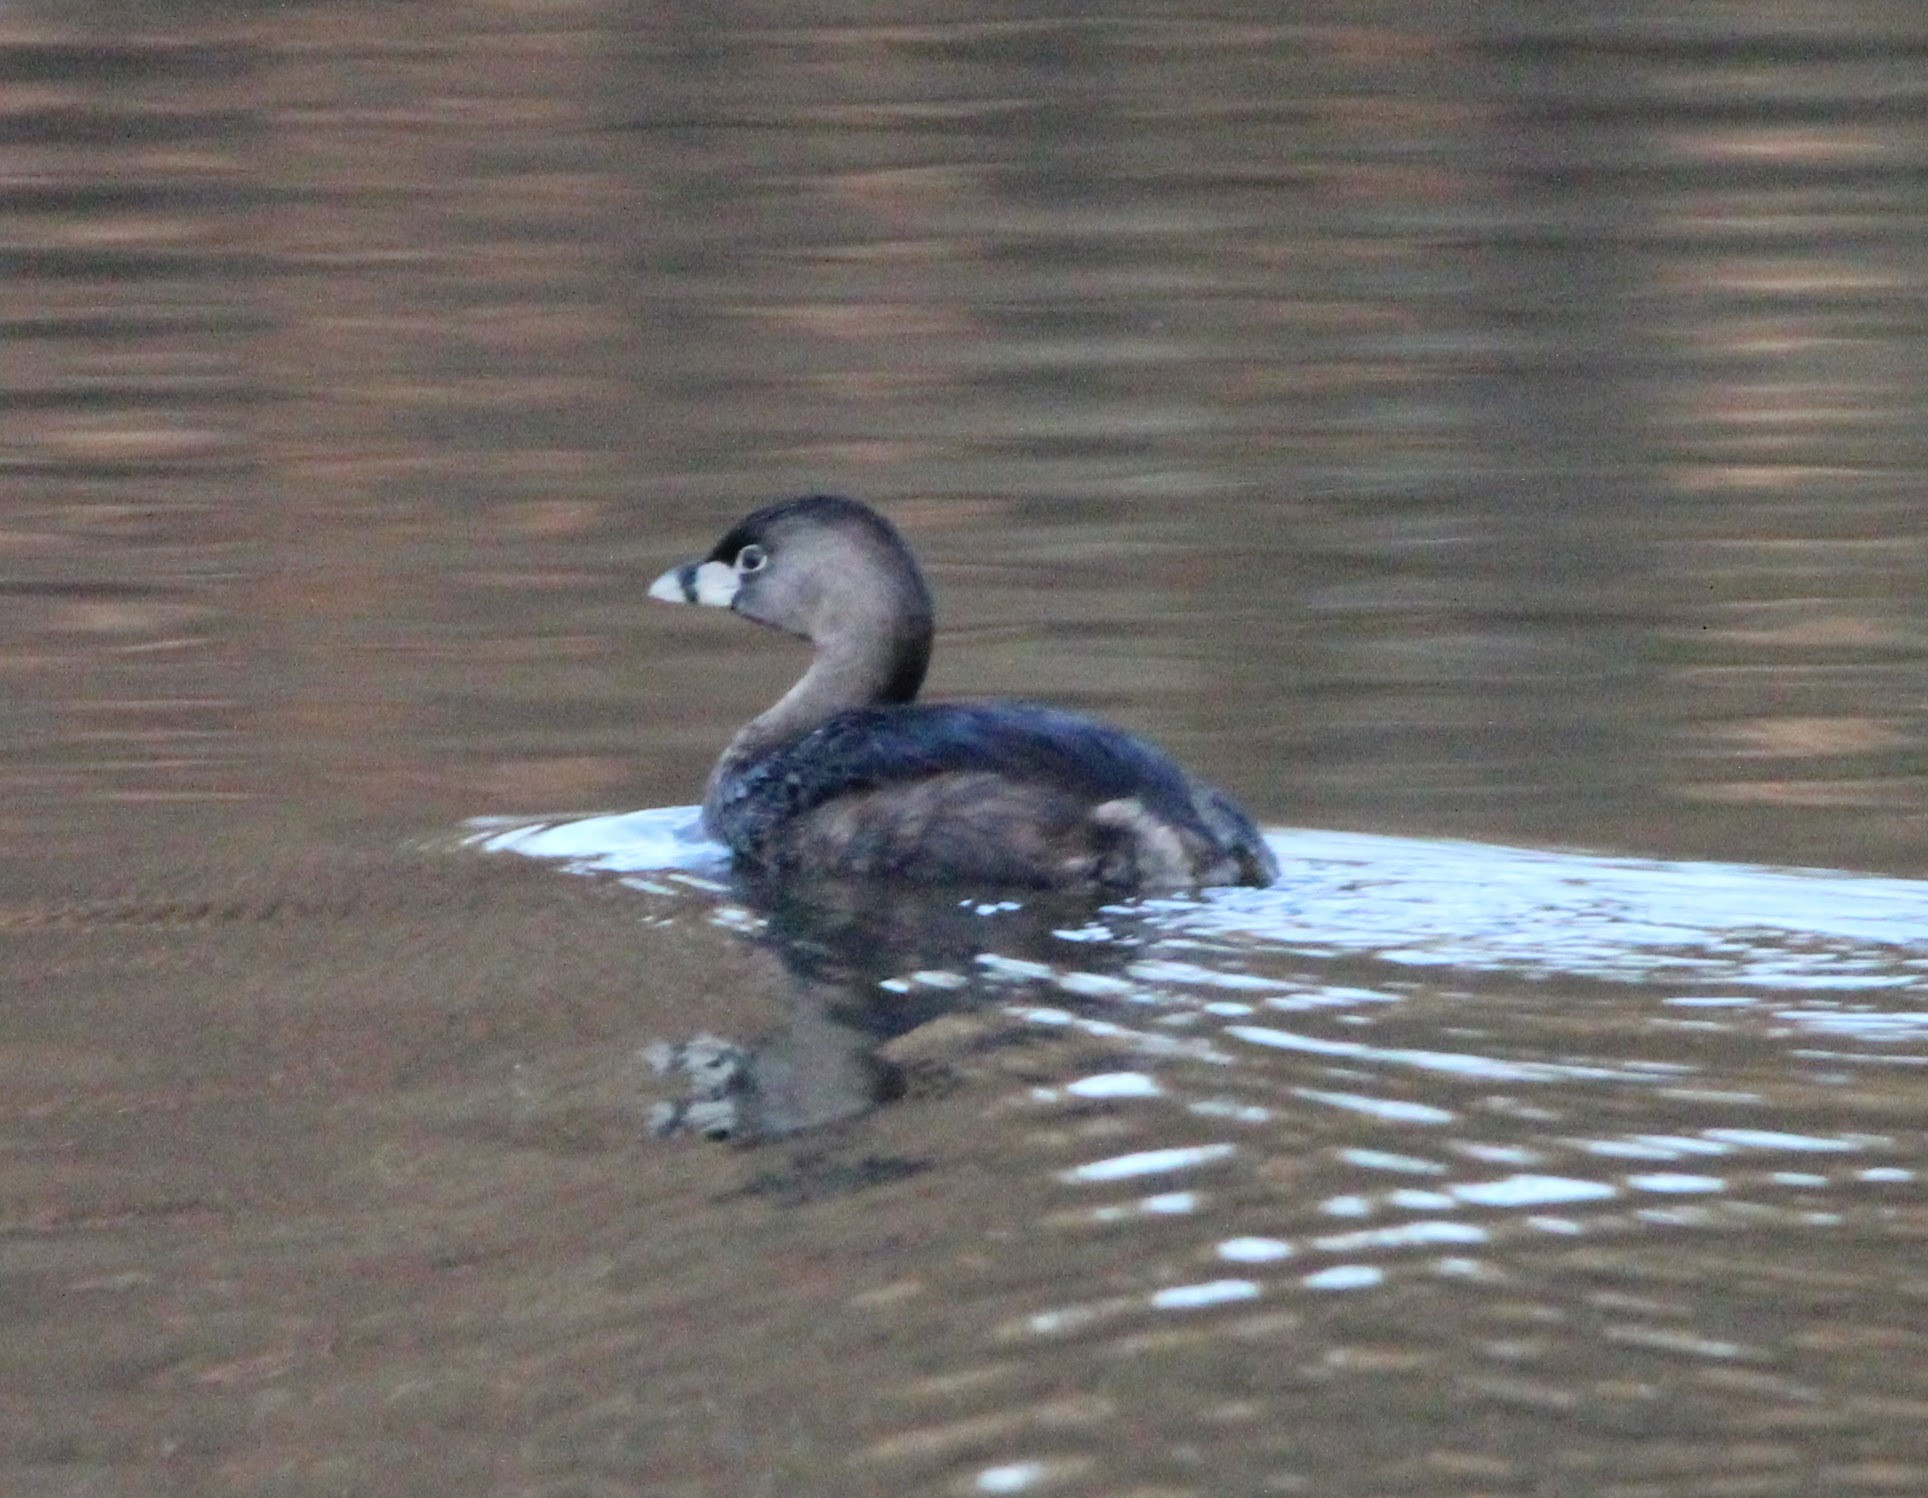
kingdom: Animalia
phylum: Chordata
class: Aves
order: Podicipediformes
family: Podicipedidae
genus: Podilymbus
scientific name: Podilymbus podiceps
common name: Pied-billed grebe
